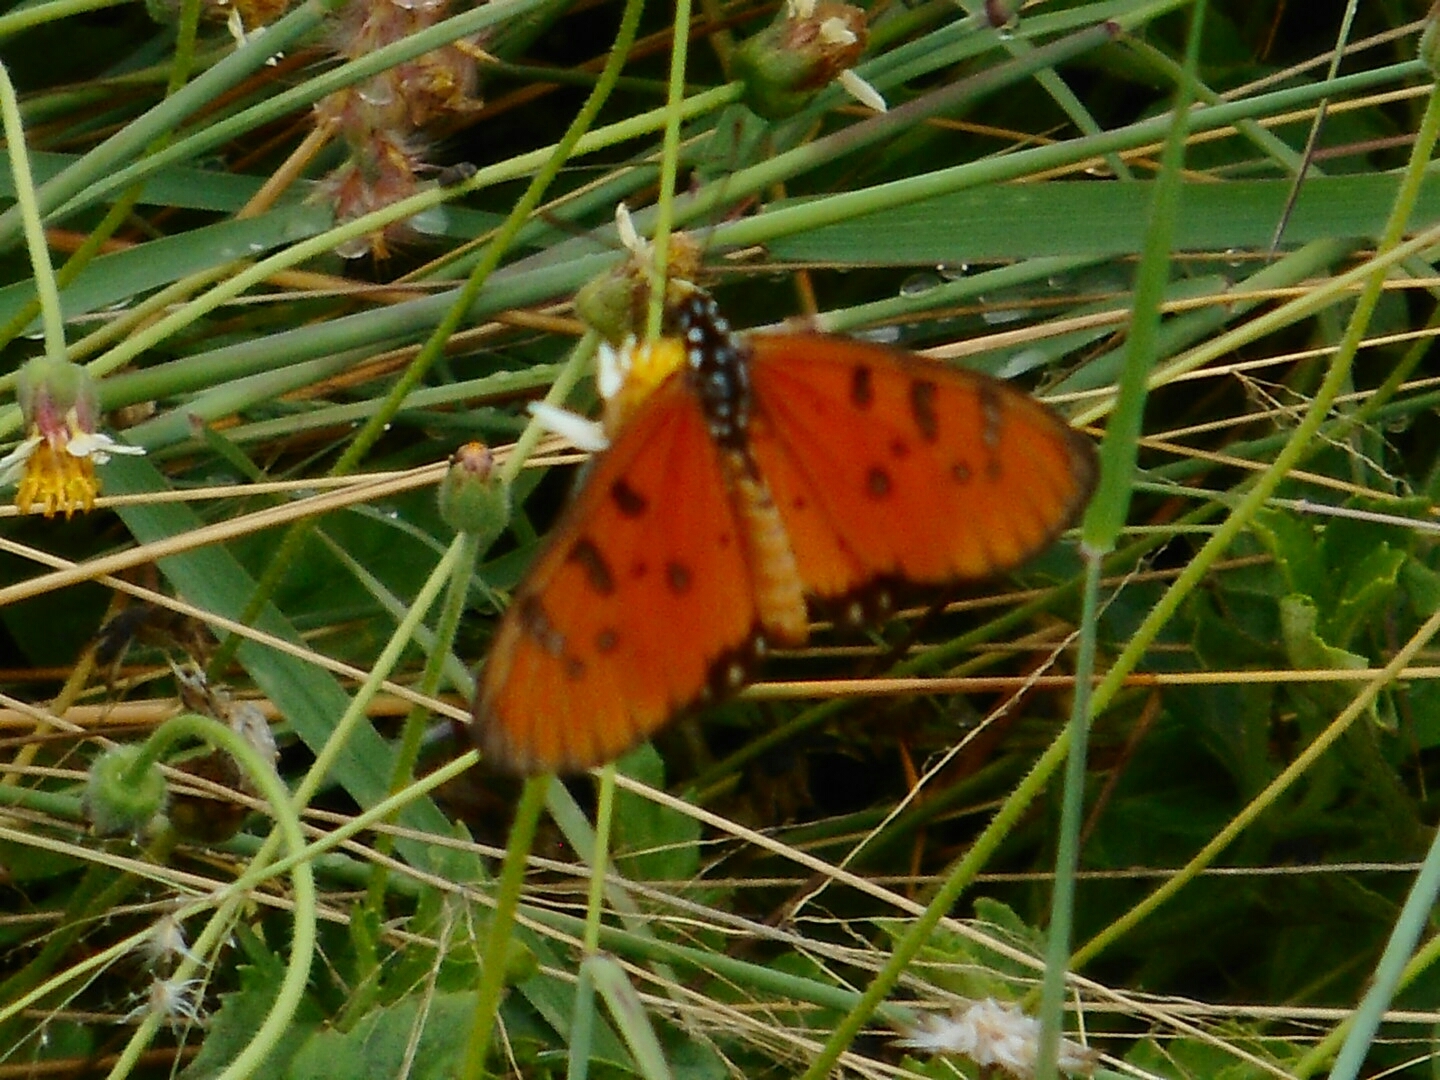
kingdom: Animalia
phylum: Arthropoda
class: Insecta
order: Lepidoptera
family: Nymphalidae
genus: Acraea
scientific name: Acraea terpsicore
